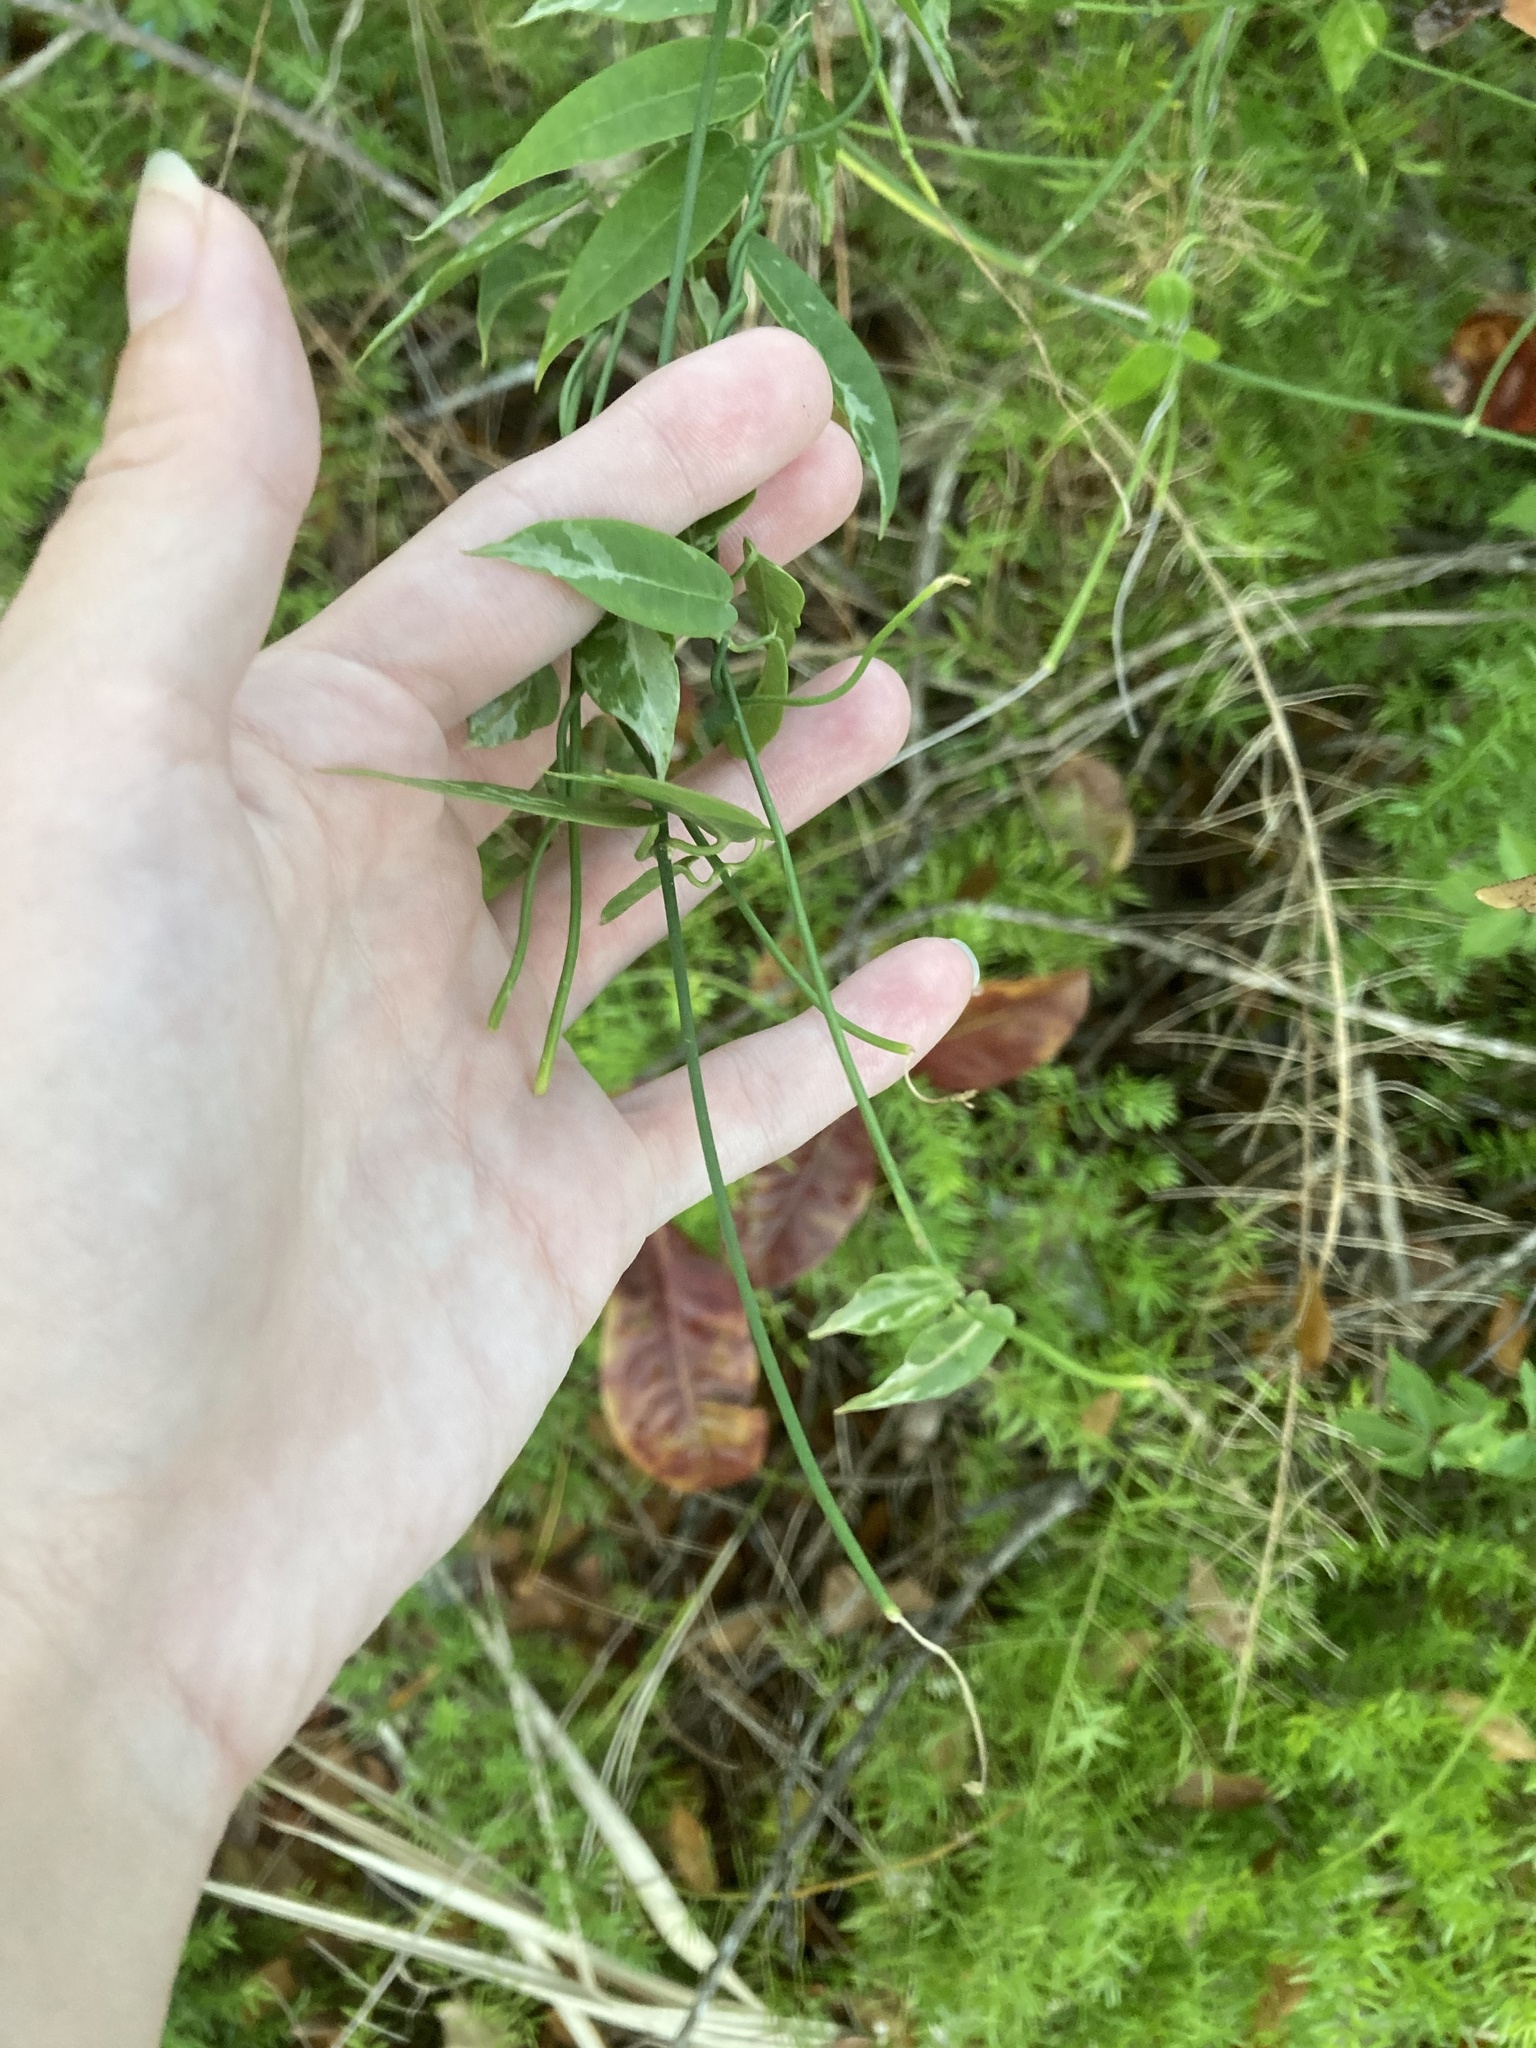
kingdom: Plantae
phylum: Tracheophyta
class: Magnoliopsida
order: Gentianales
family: Apocynaceae
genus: Funastrum
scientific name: Funastrum clausum
